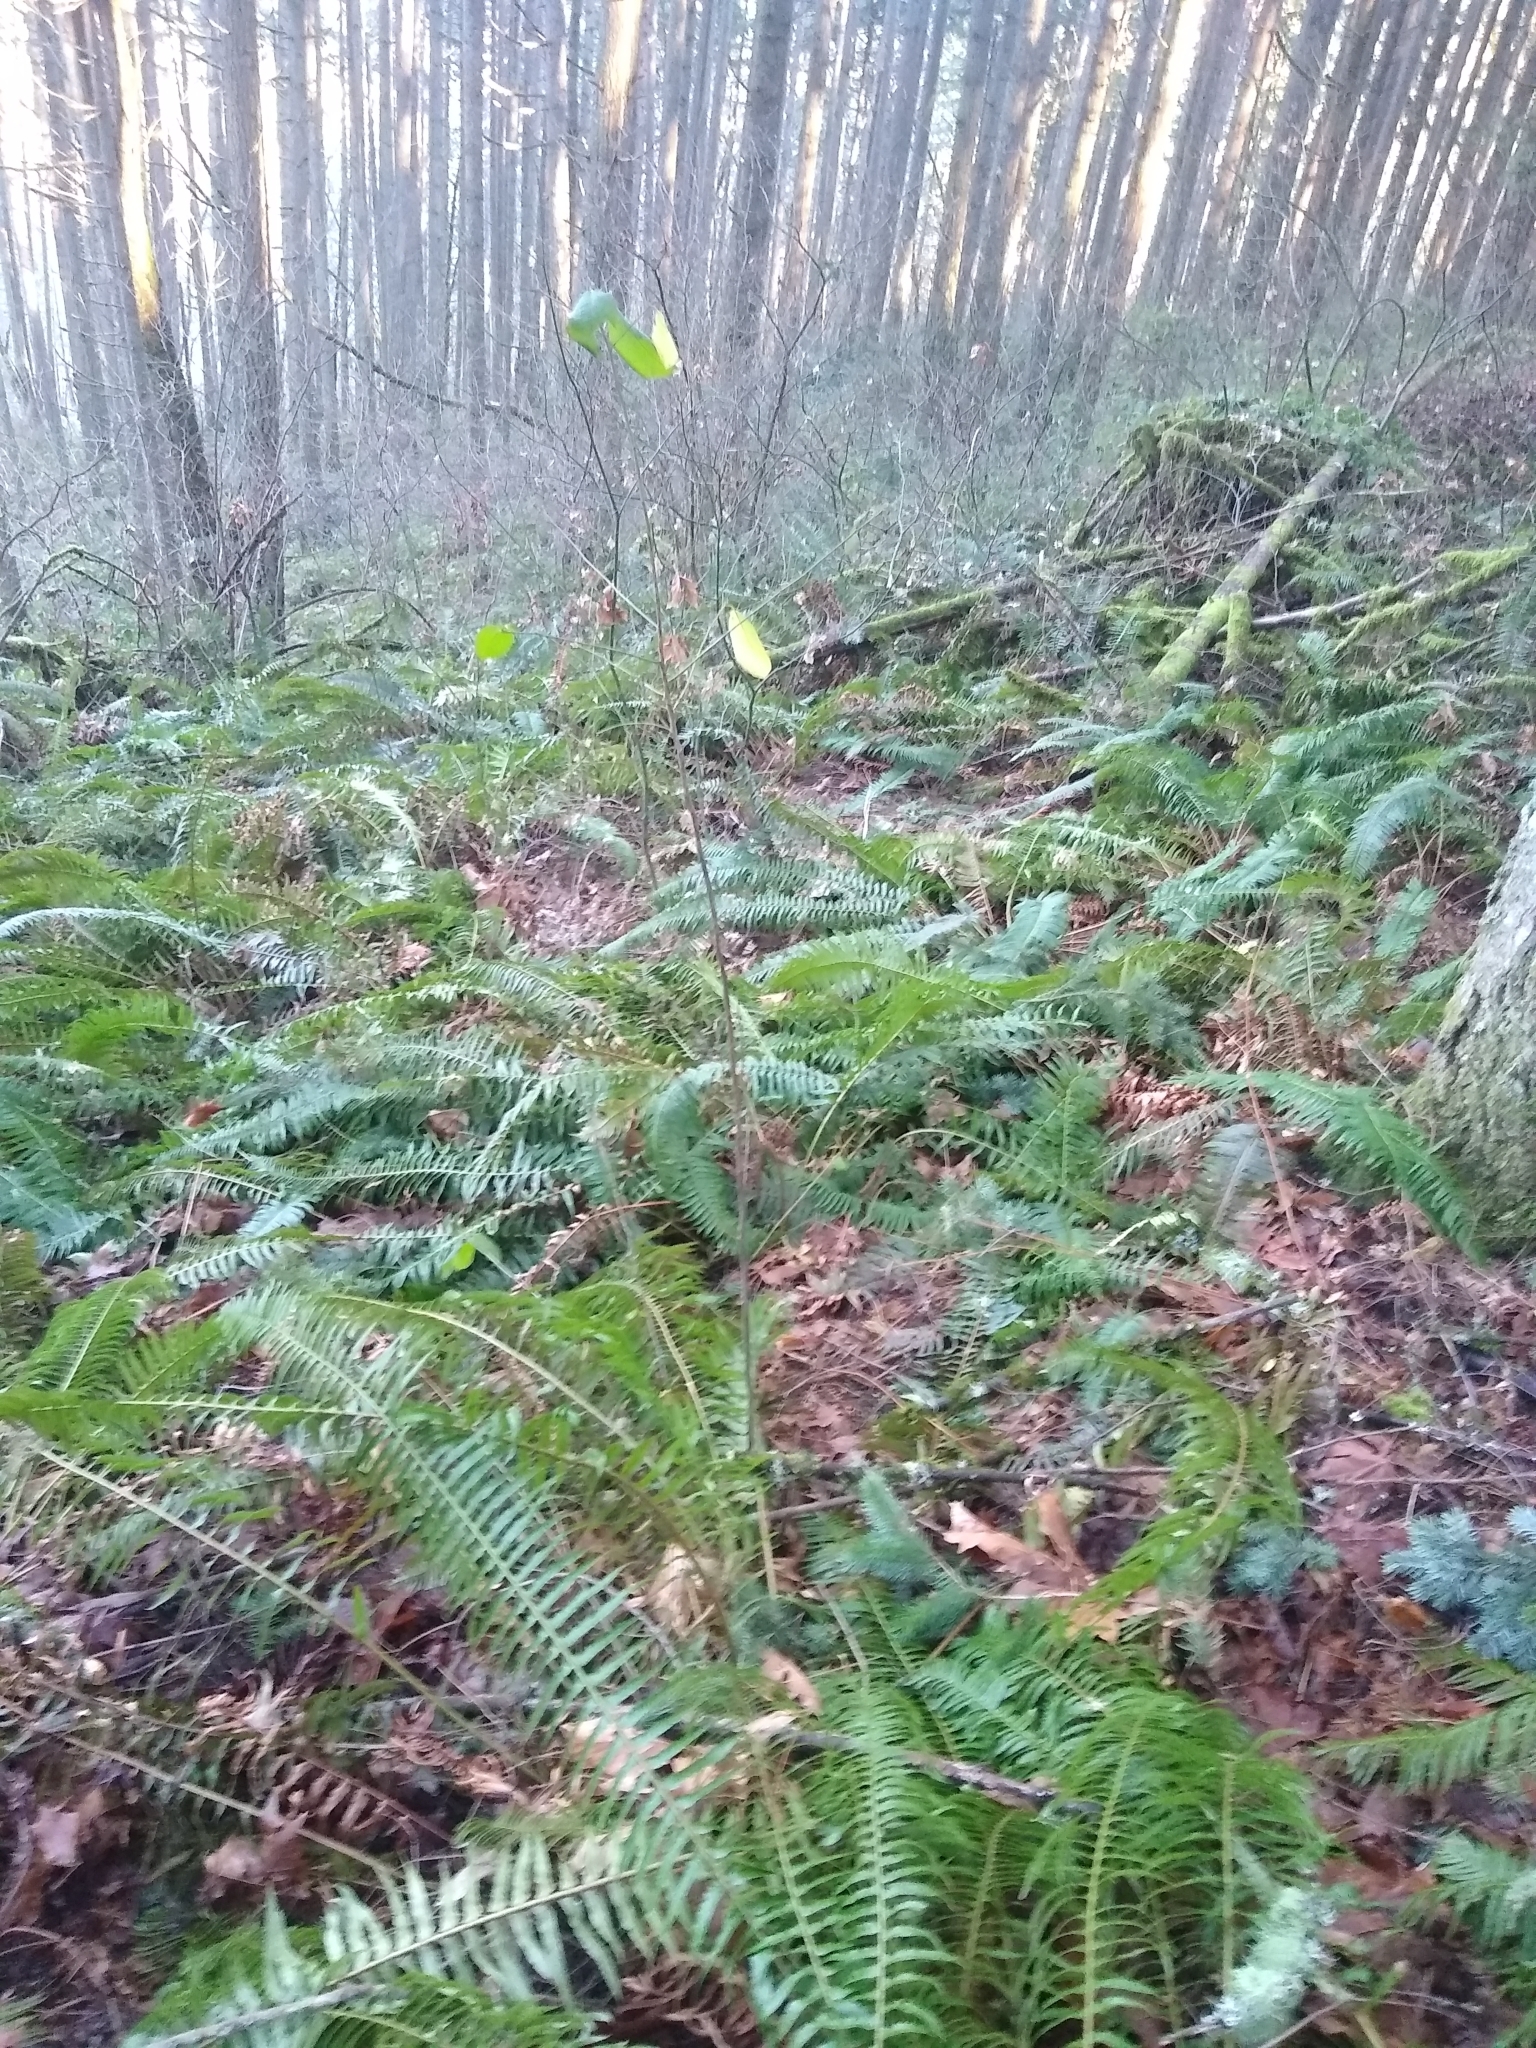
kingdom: Plantae
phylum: Tracheophyta
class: Magnoliopsida
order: Rosales
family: Rhamnaceae
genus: Frangula
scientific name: Frangula purshiana
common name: Cascara buckthorn
